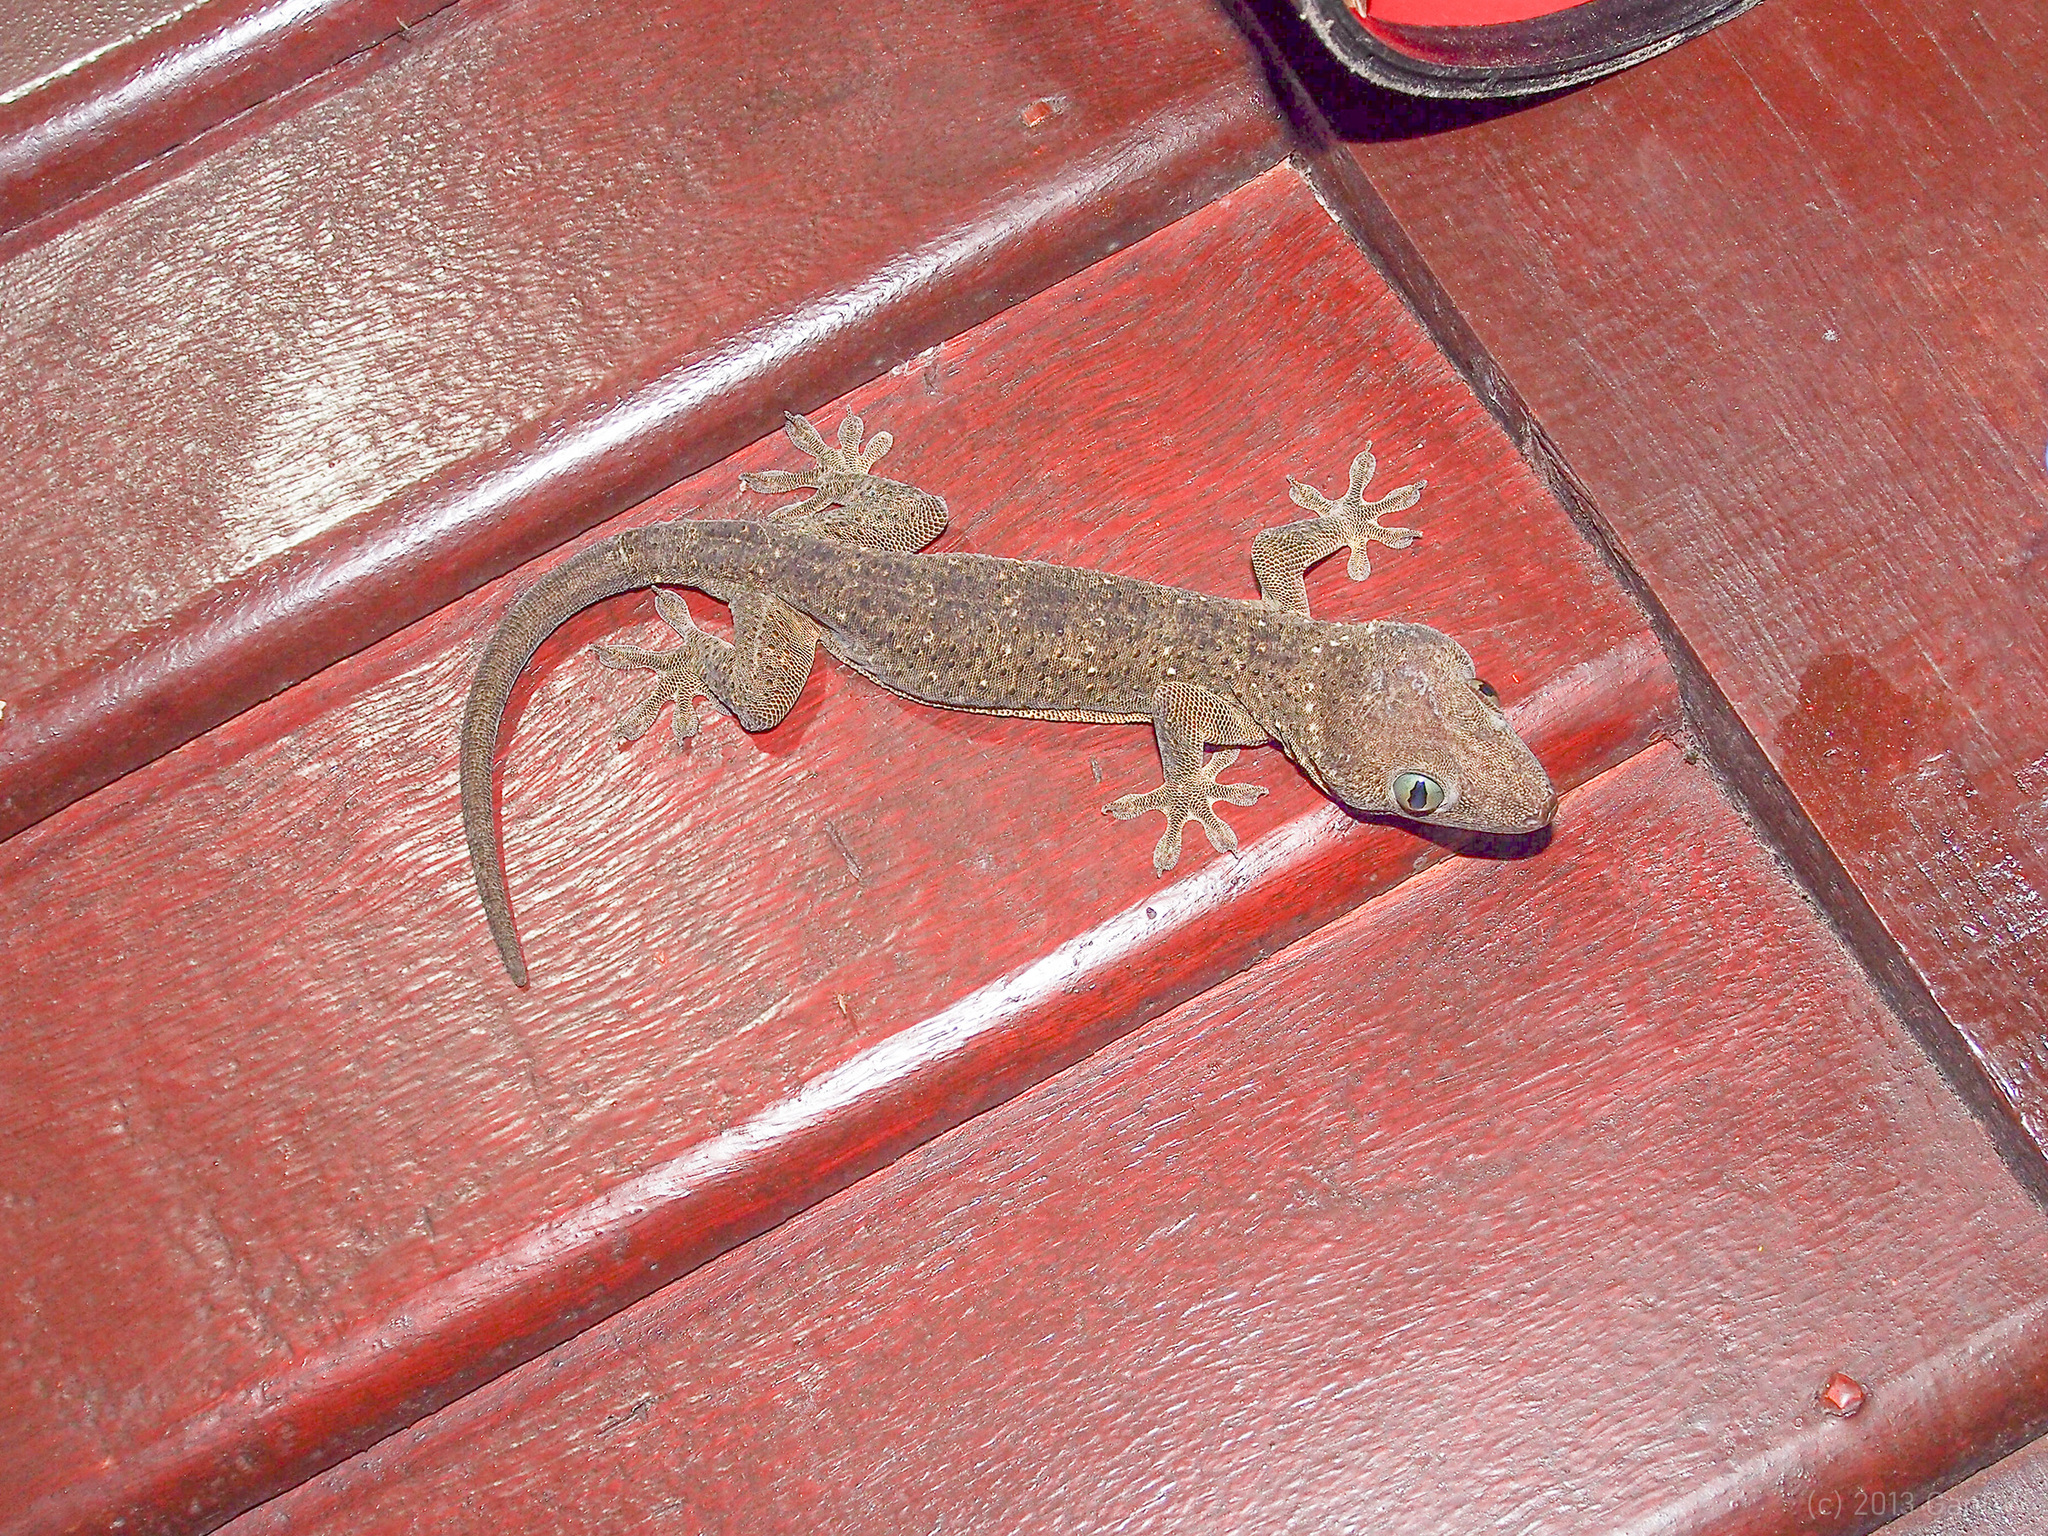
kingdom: Animalia
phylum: Chordata
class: Squamata
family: Gekkonidae
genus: Gekko
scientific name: Gekko hulk
